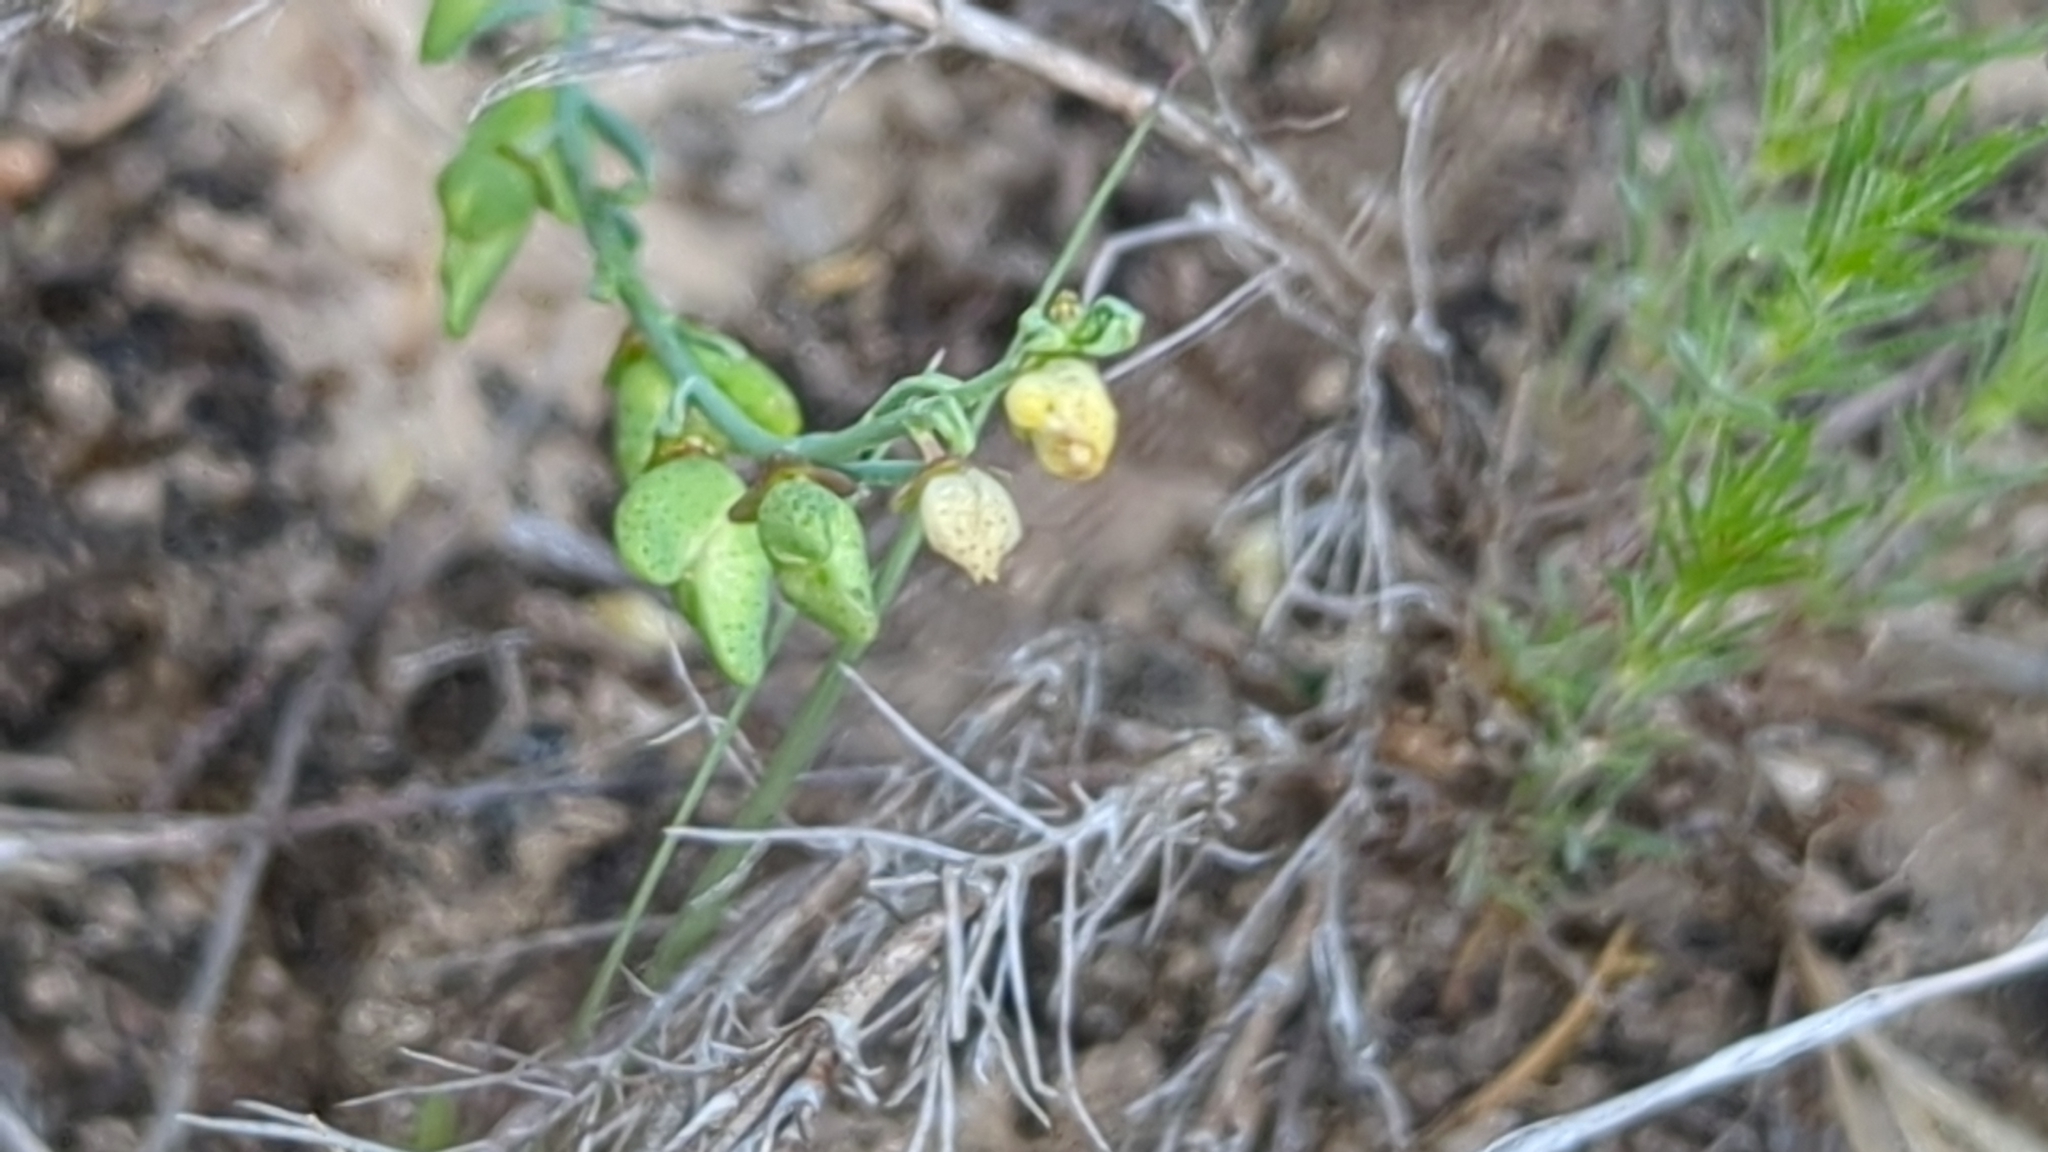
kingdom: Plantae
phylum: Tracheophyta
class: Magnoliopsida
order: Sapindales
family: Rutaceae
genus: Thamnosma
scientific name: Thamnosma texana
